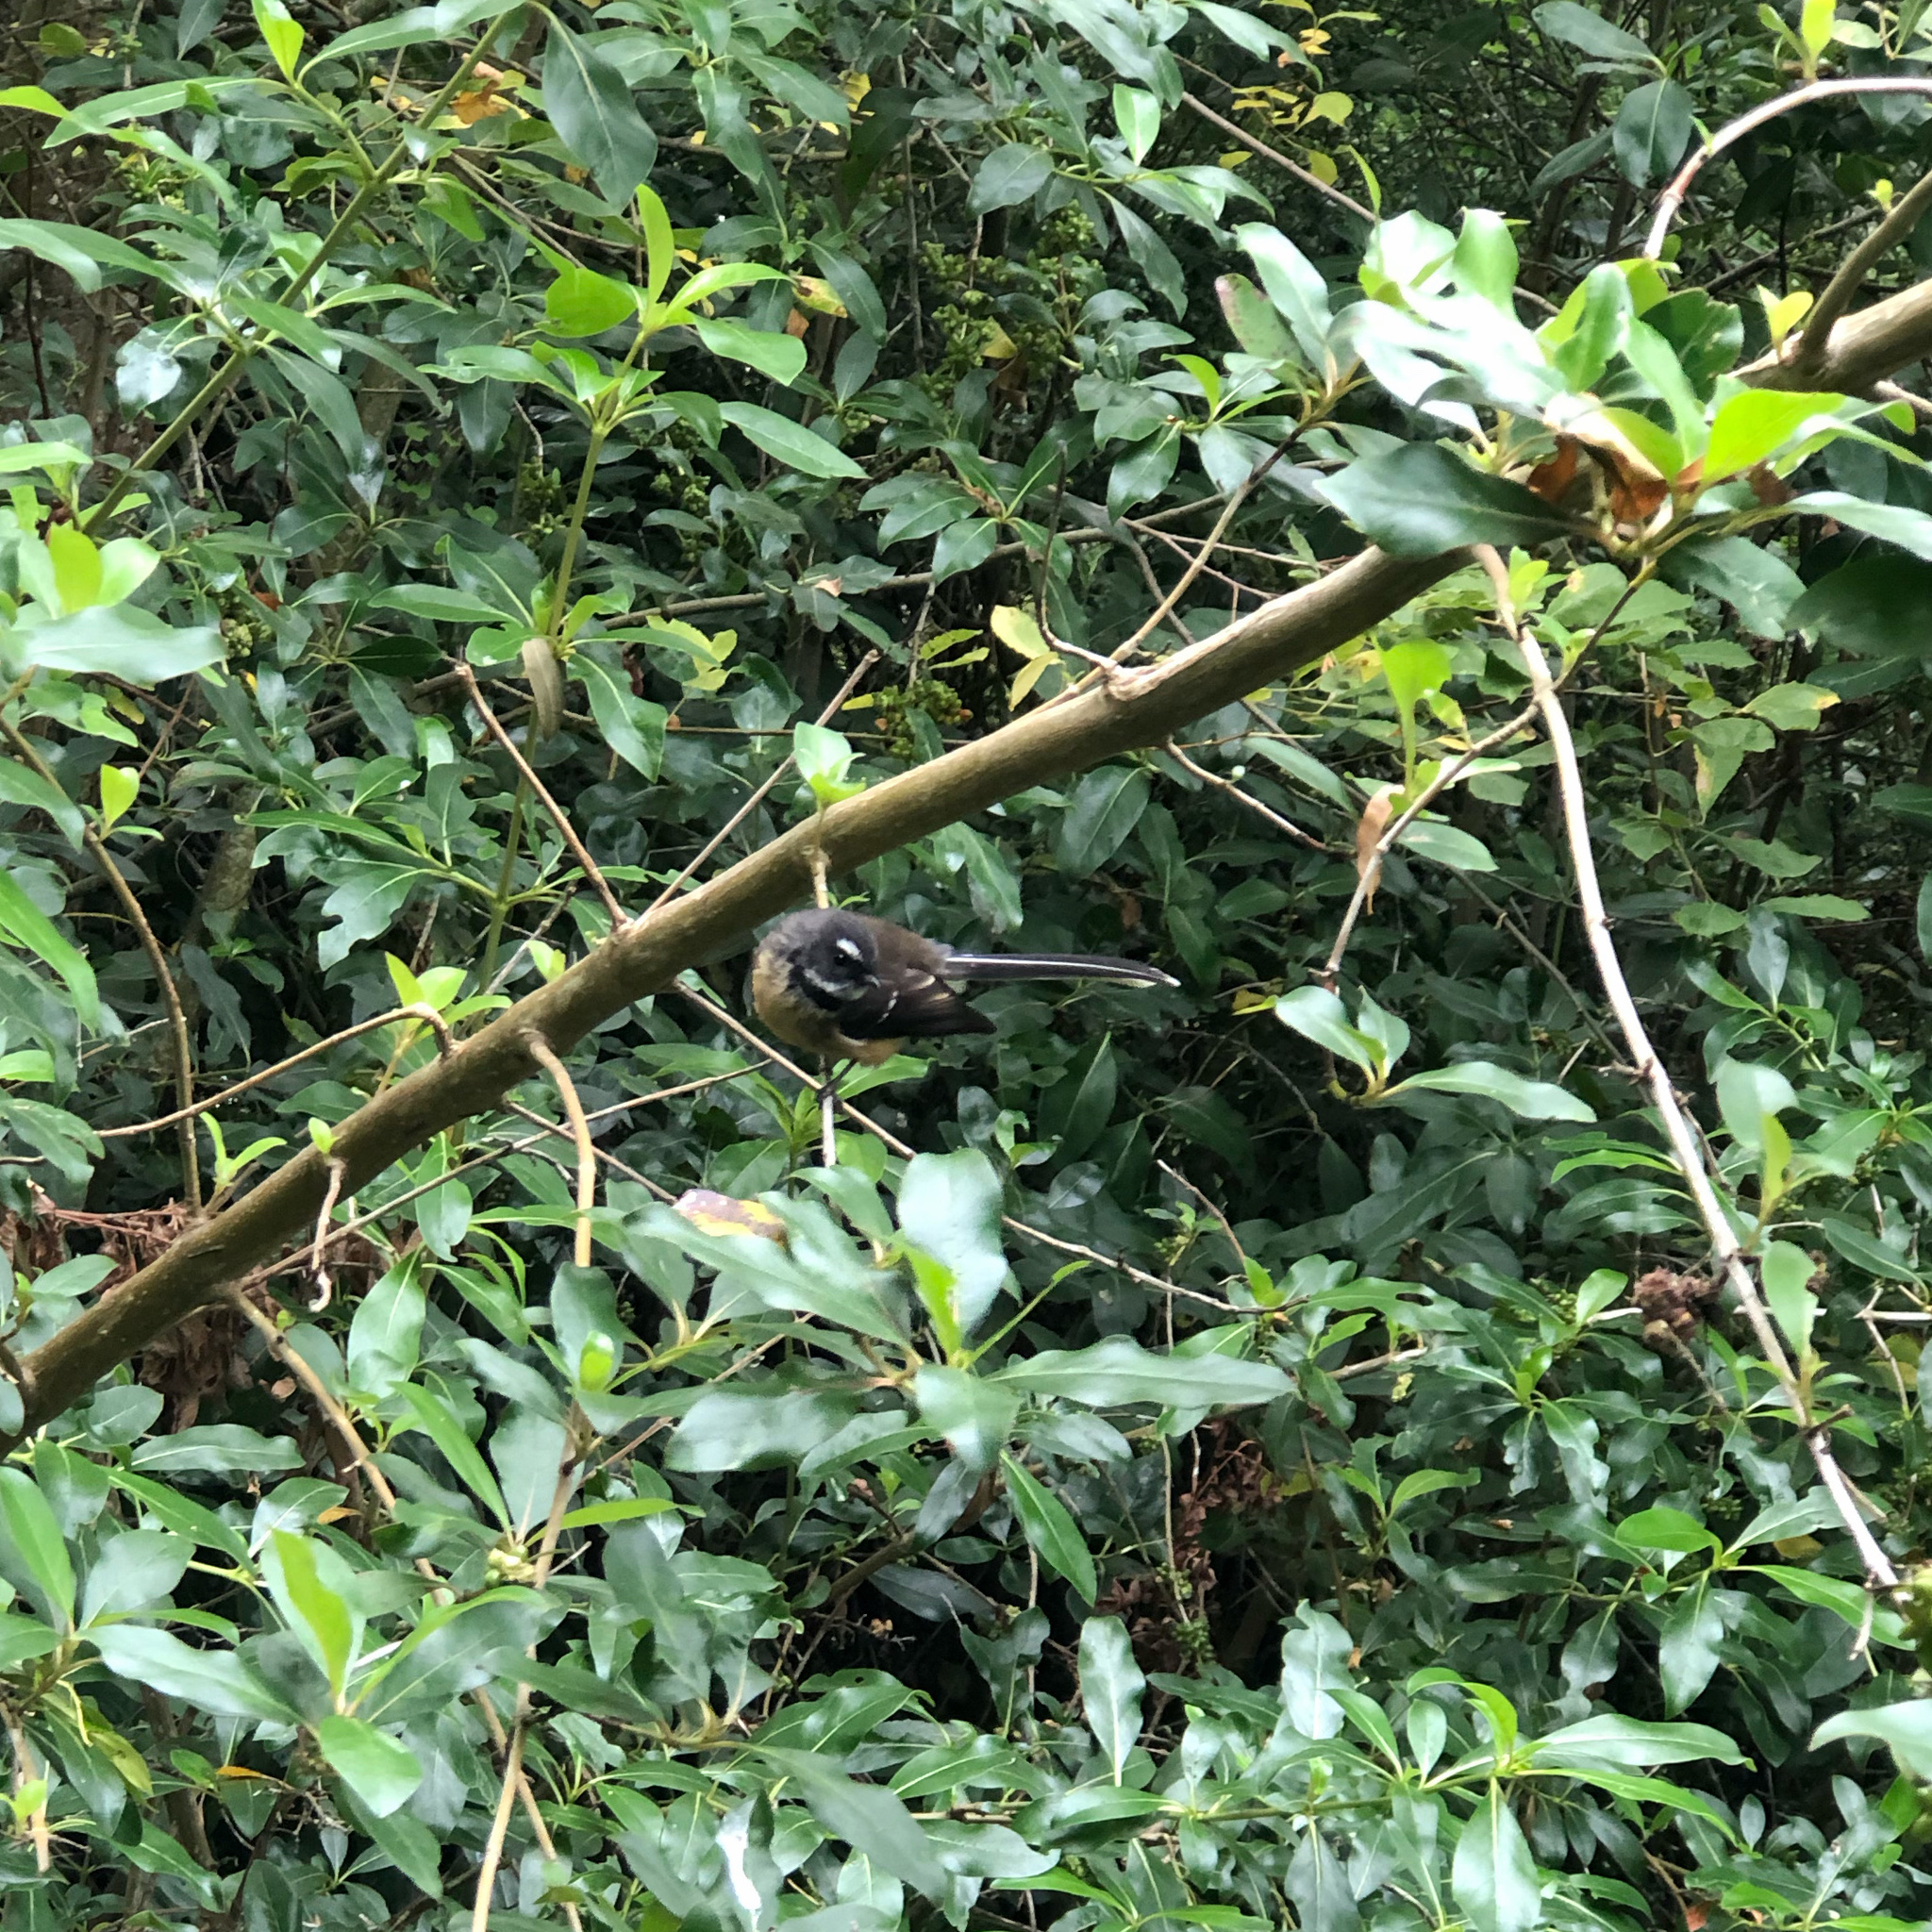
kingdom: Animalia
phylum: Chordata
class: Aves
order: Passeriformes
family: Rhipiduridae
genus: Rhipidura
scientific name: Rhipidura fuliginosa
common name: New zealand fantail
